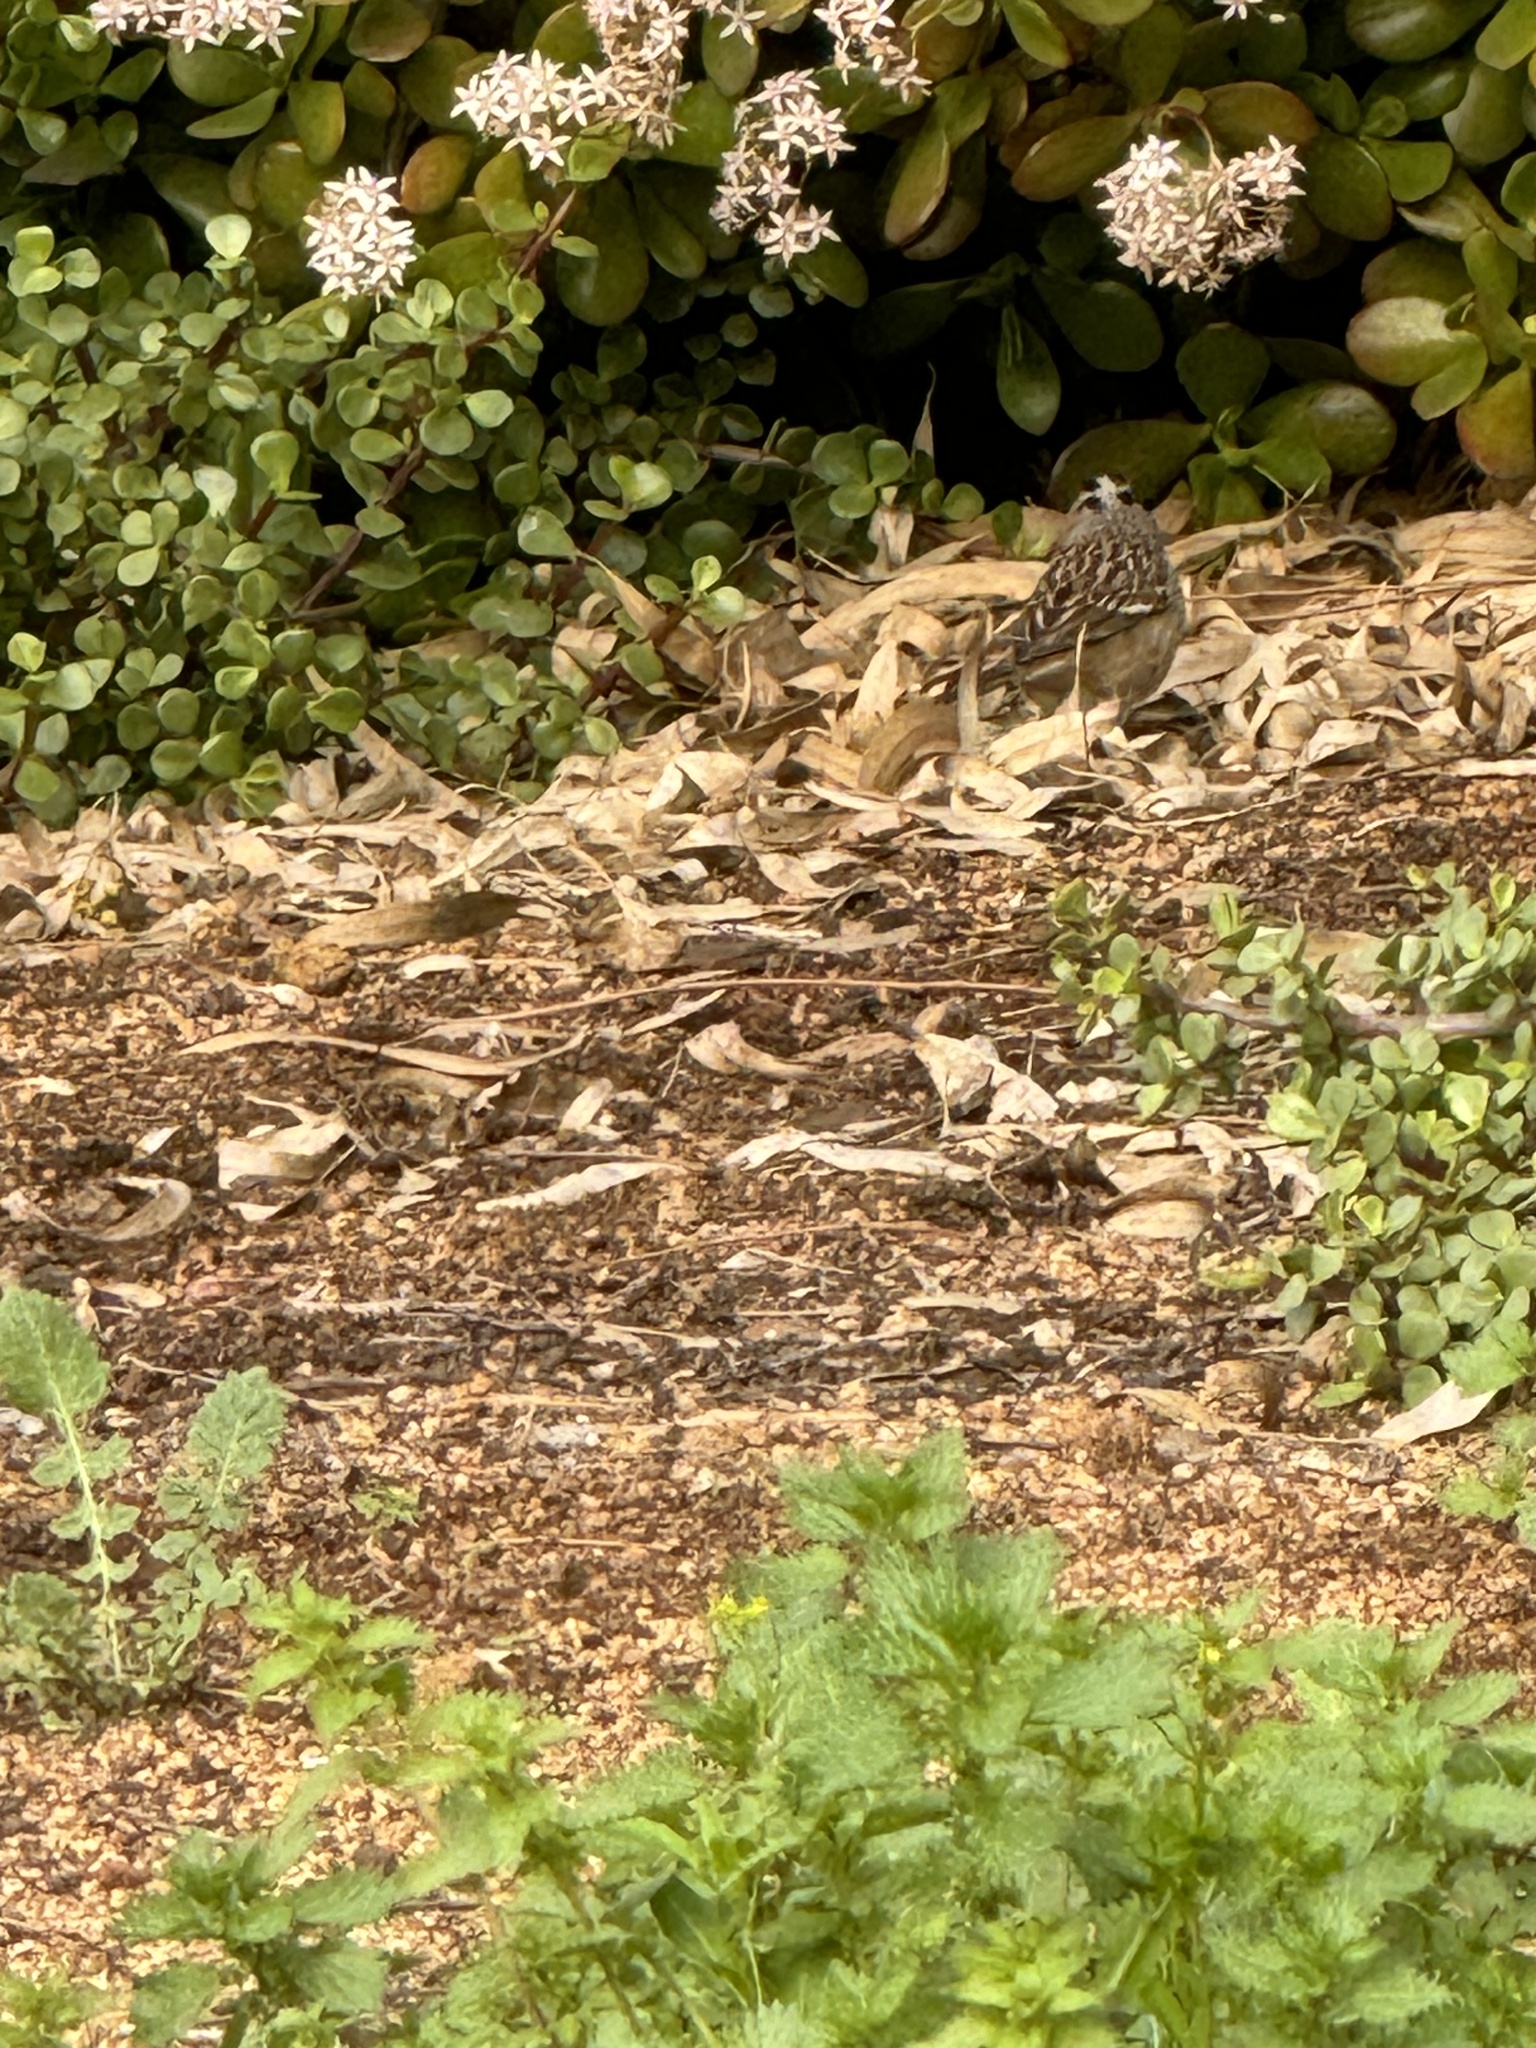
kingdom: Animalia
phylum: Chordata
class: Aves
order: Passeriformes
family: Passerellidae
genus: Zonotrichia
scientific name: Zonotrichia leucophrys
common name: White-crowned sparrow
